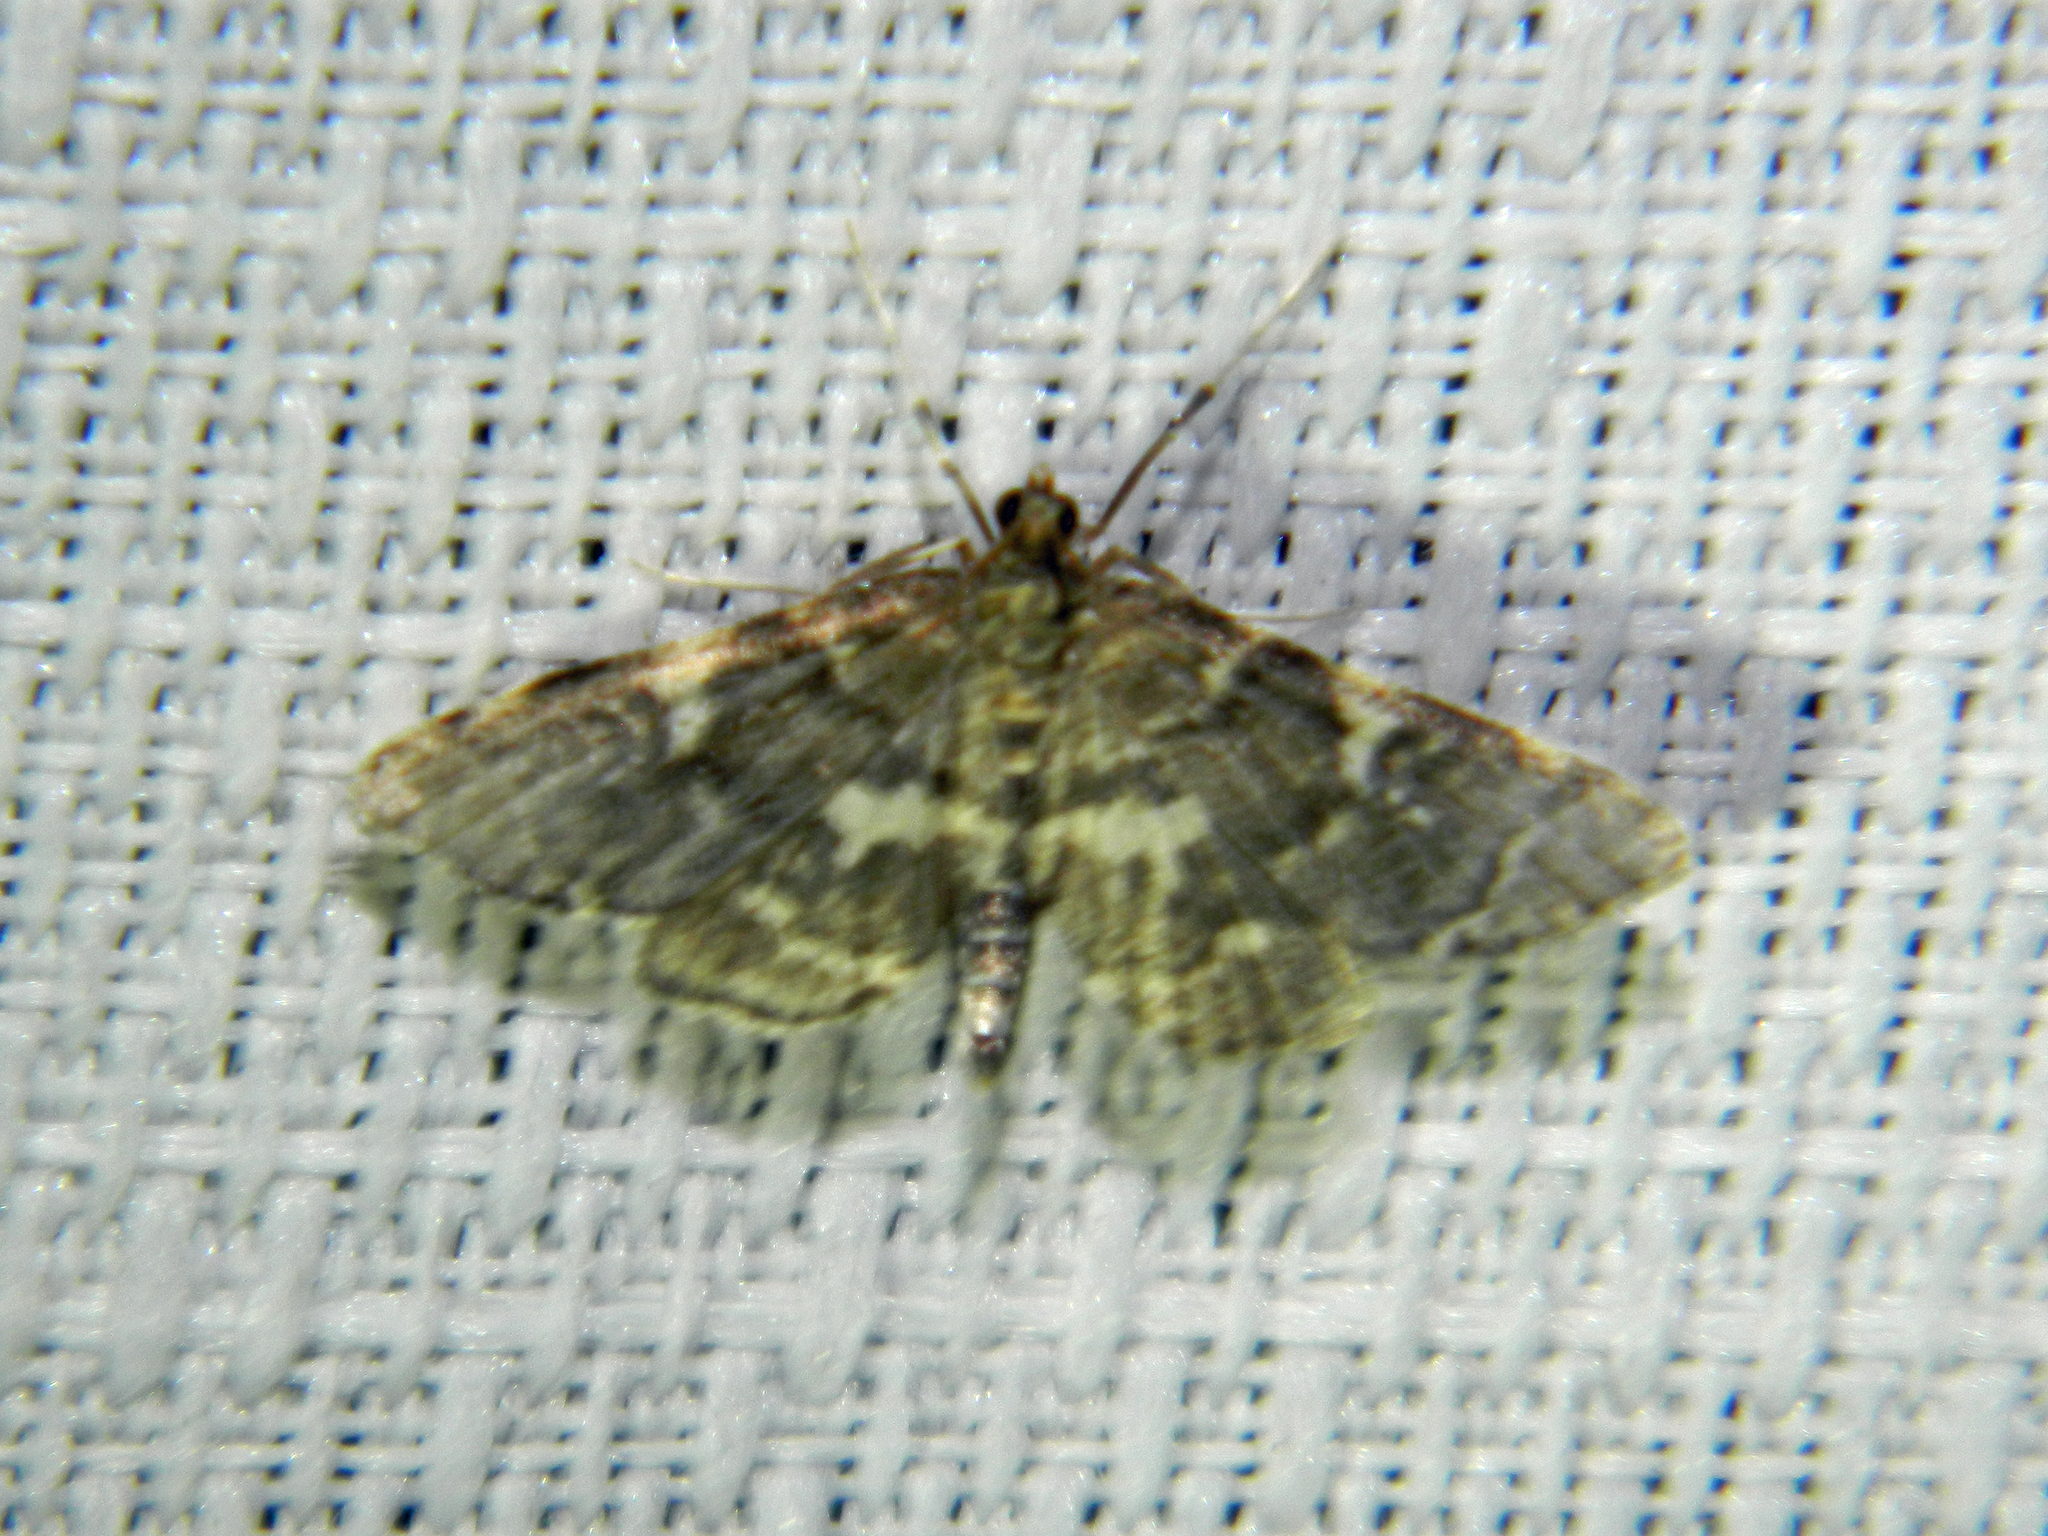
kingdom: Animalia
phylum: Arthropoda
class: Insecta
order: Lepidoptera
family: Crambidae
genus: Anageshna
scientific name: Anageshna primordialis
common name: Yellow-spotted webworm moth
